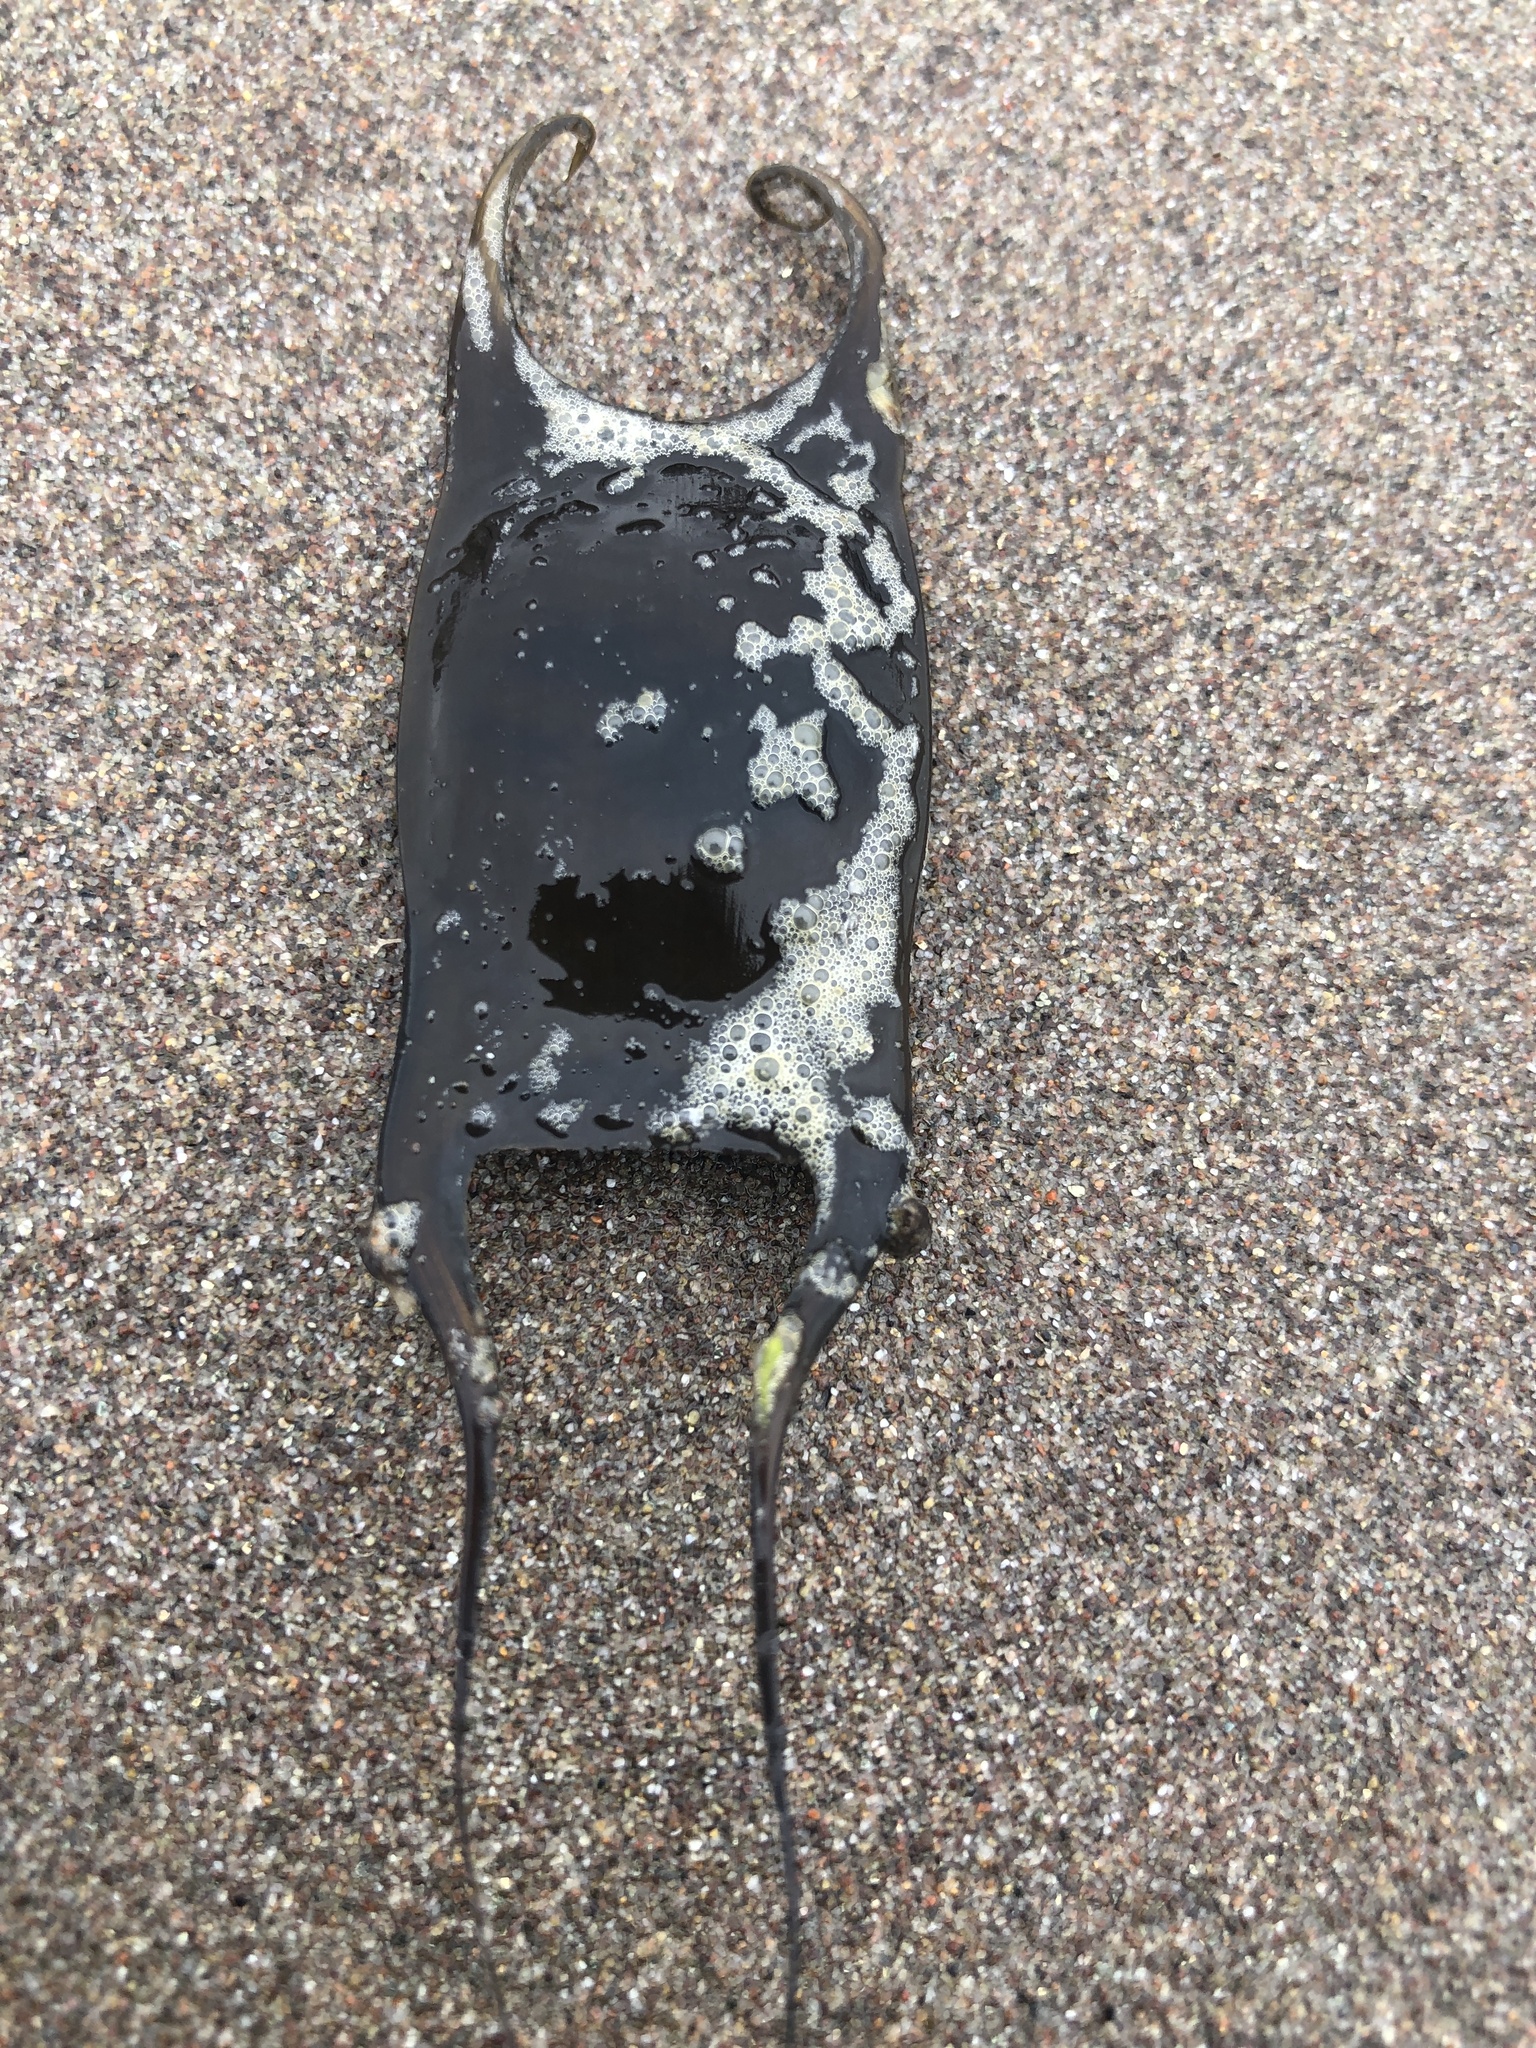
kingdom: Animalia
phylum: Chordata
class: Elasmobranchii
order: Rajiformes
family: Arhynchobatidae
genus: Psammobatis
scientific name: Psammobatis scobina
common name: Raspthorn sand skate
